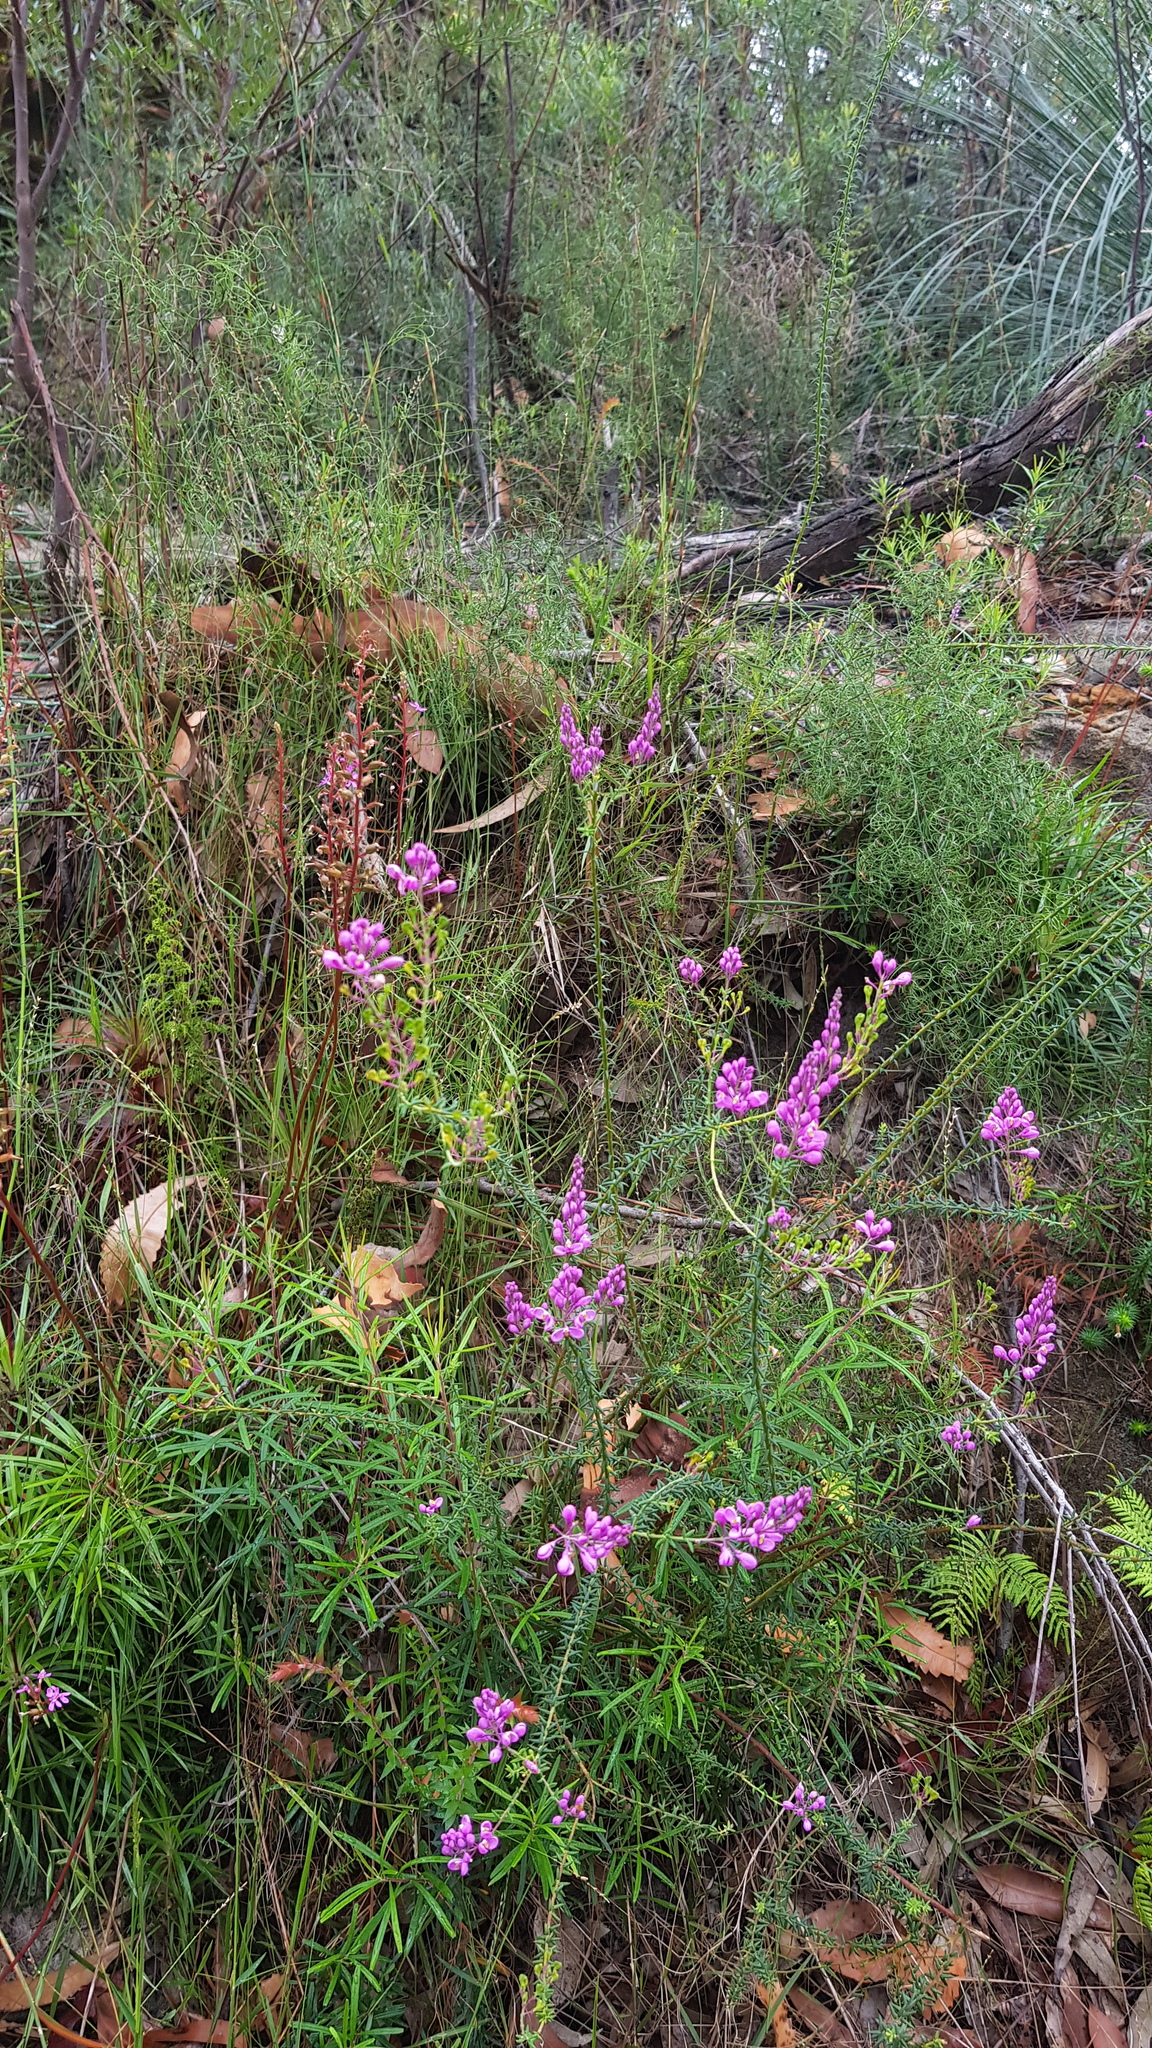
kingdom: Plantae
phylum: Tracheophyta
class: Magnoliopsida
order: Fabales
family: Polygalaceae
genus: Comesperma
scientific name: Comesperma ericinum
